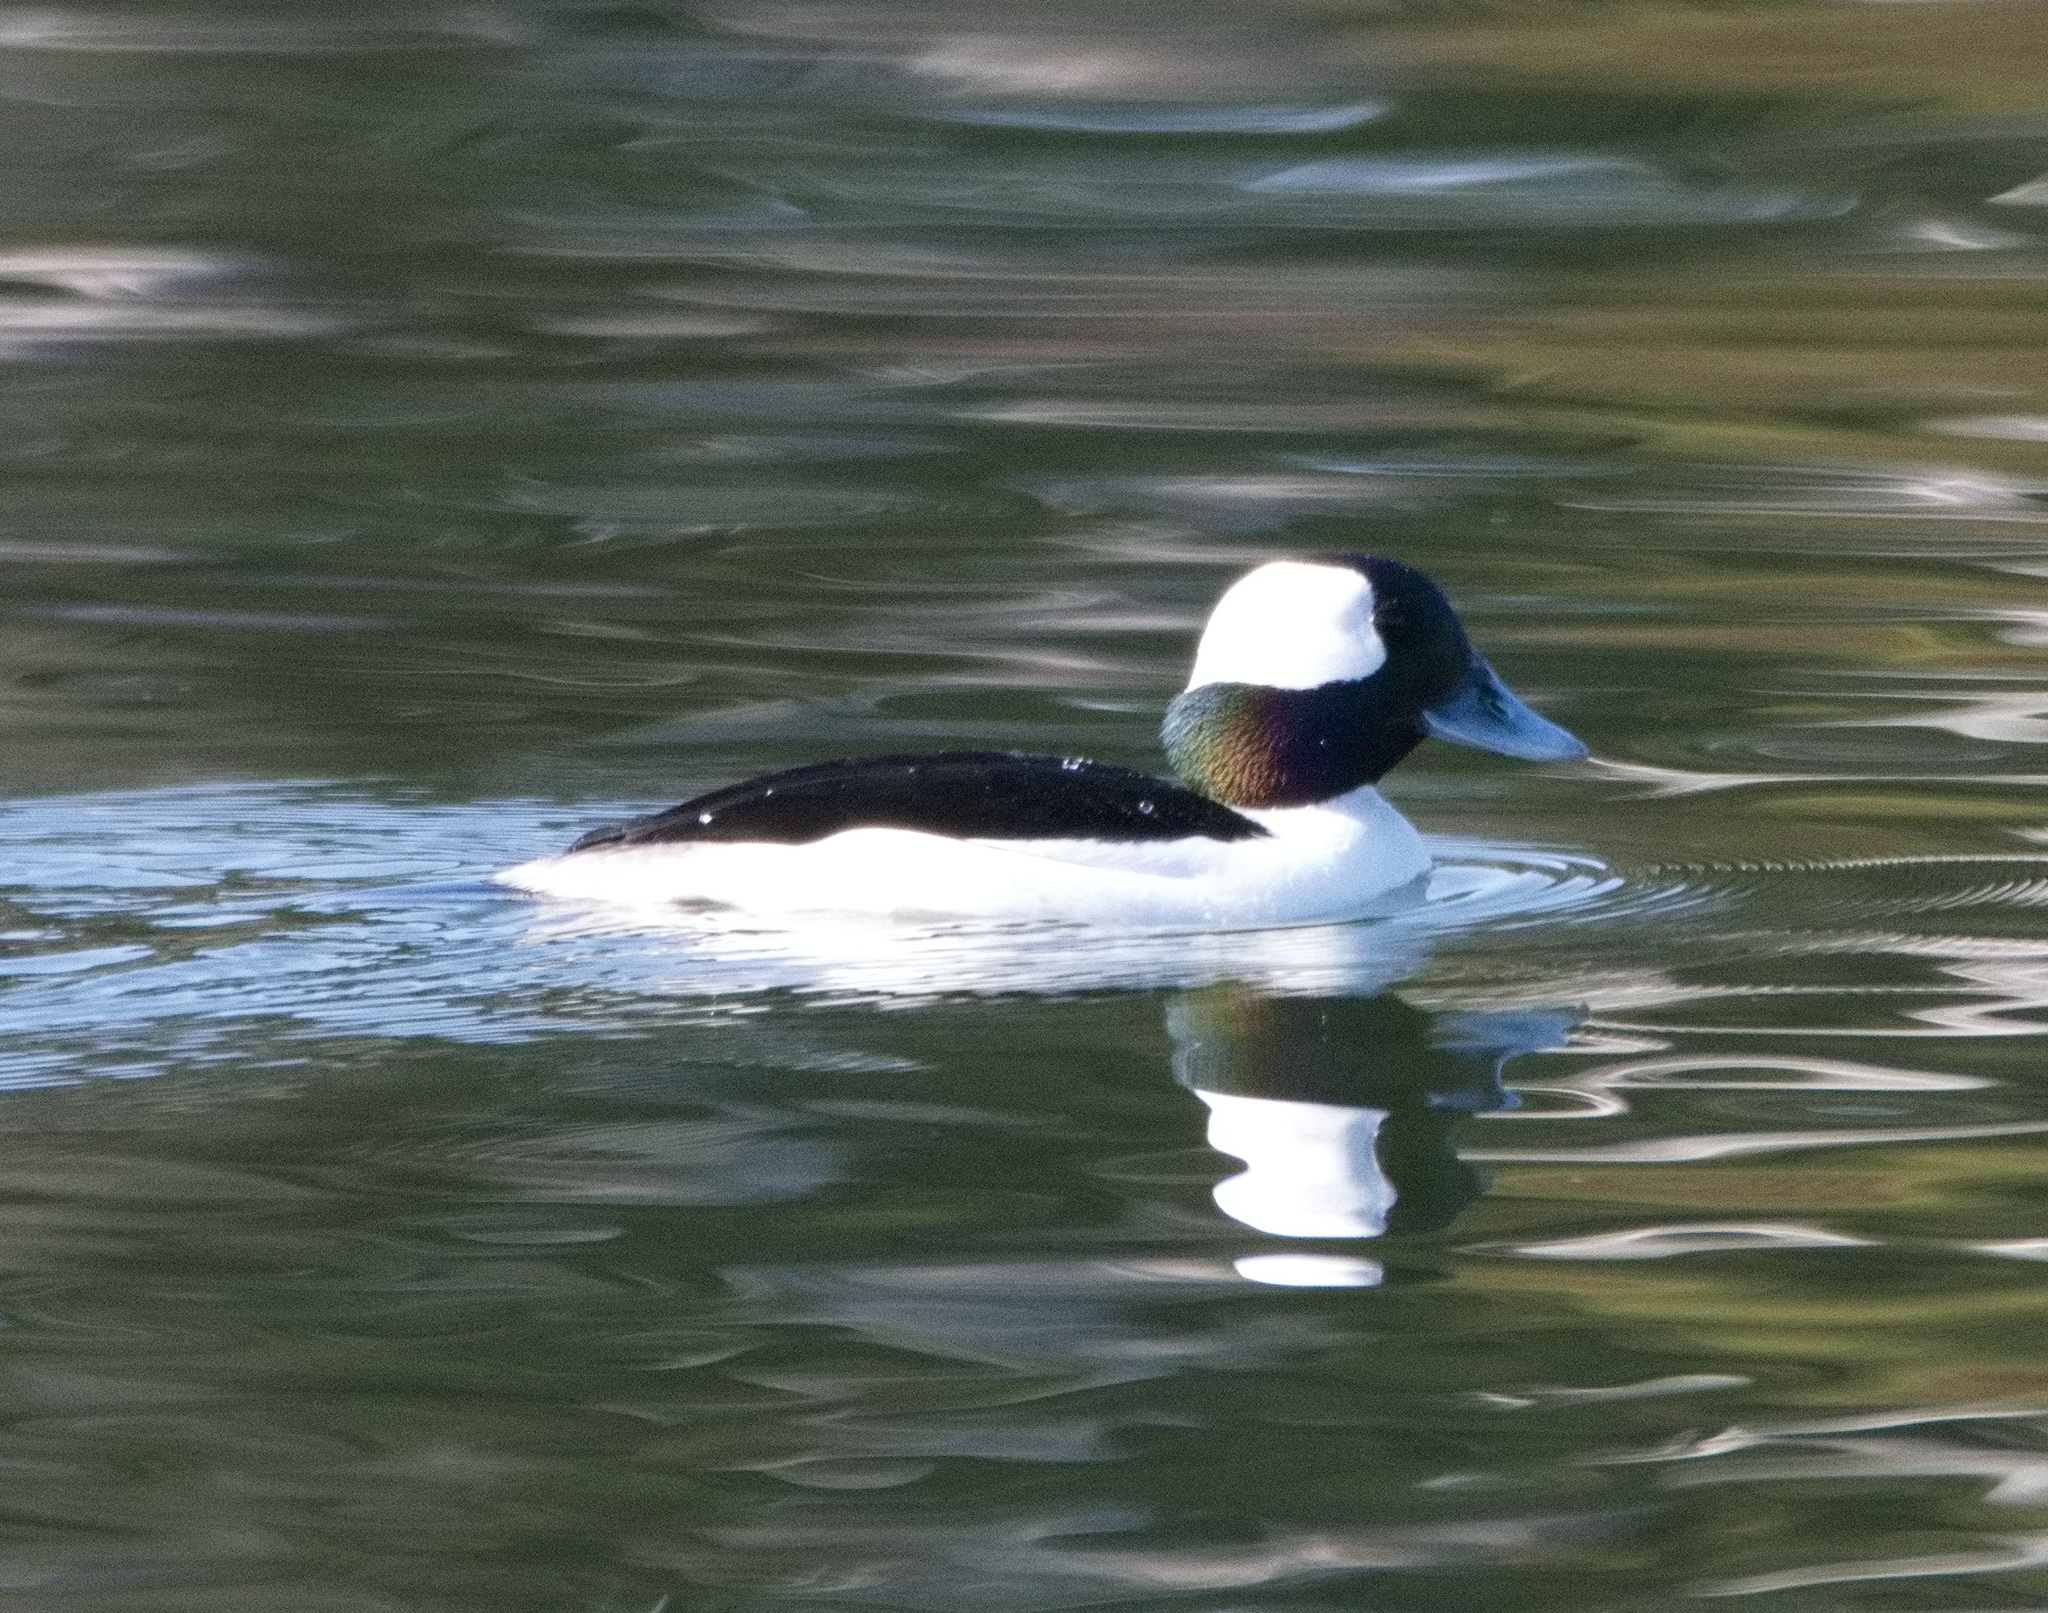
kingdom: Animalia
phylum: Chordata
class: Aves
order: Anseriformes
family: Anatidae
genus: Bucephala
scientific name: Bucephala albeola
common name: Bufflehead
